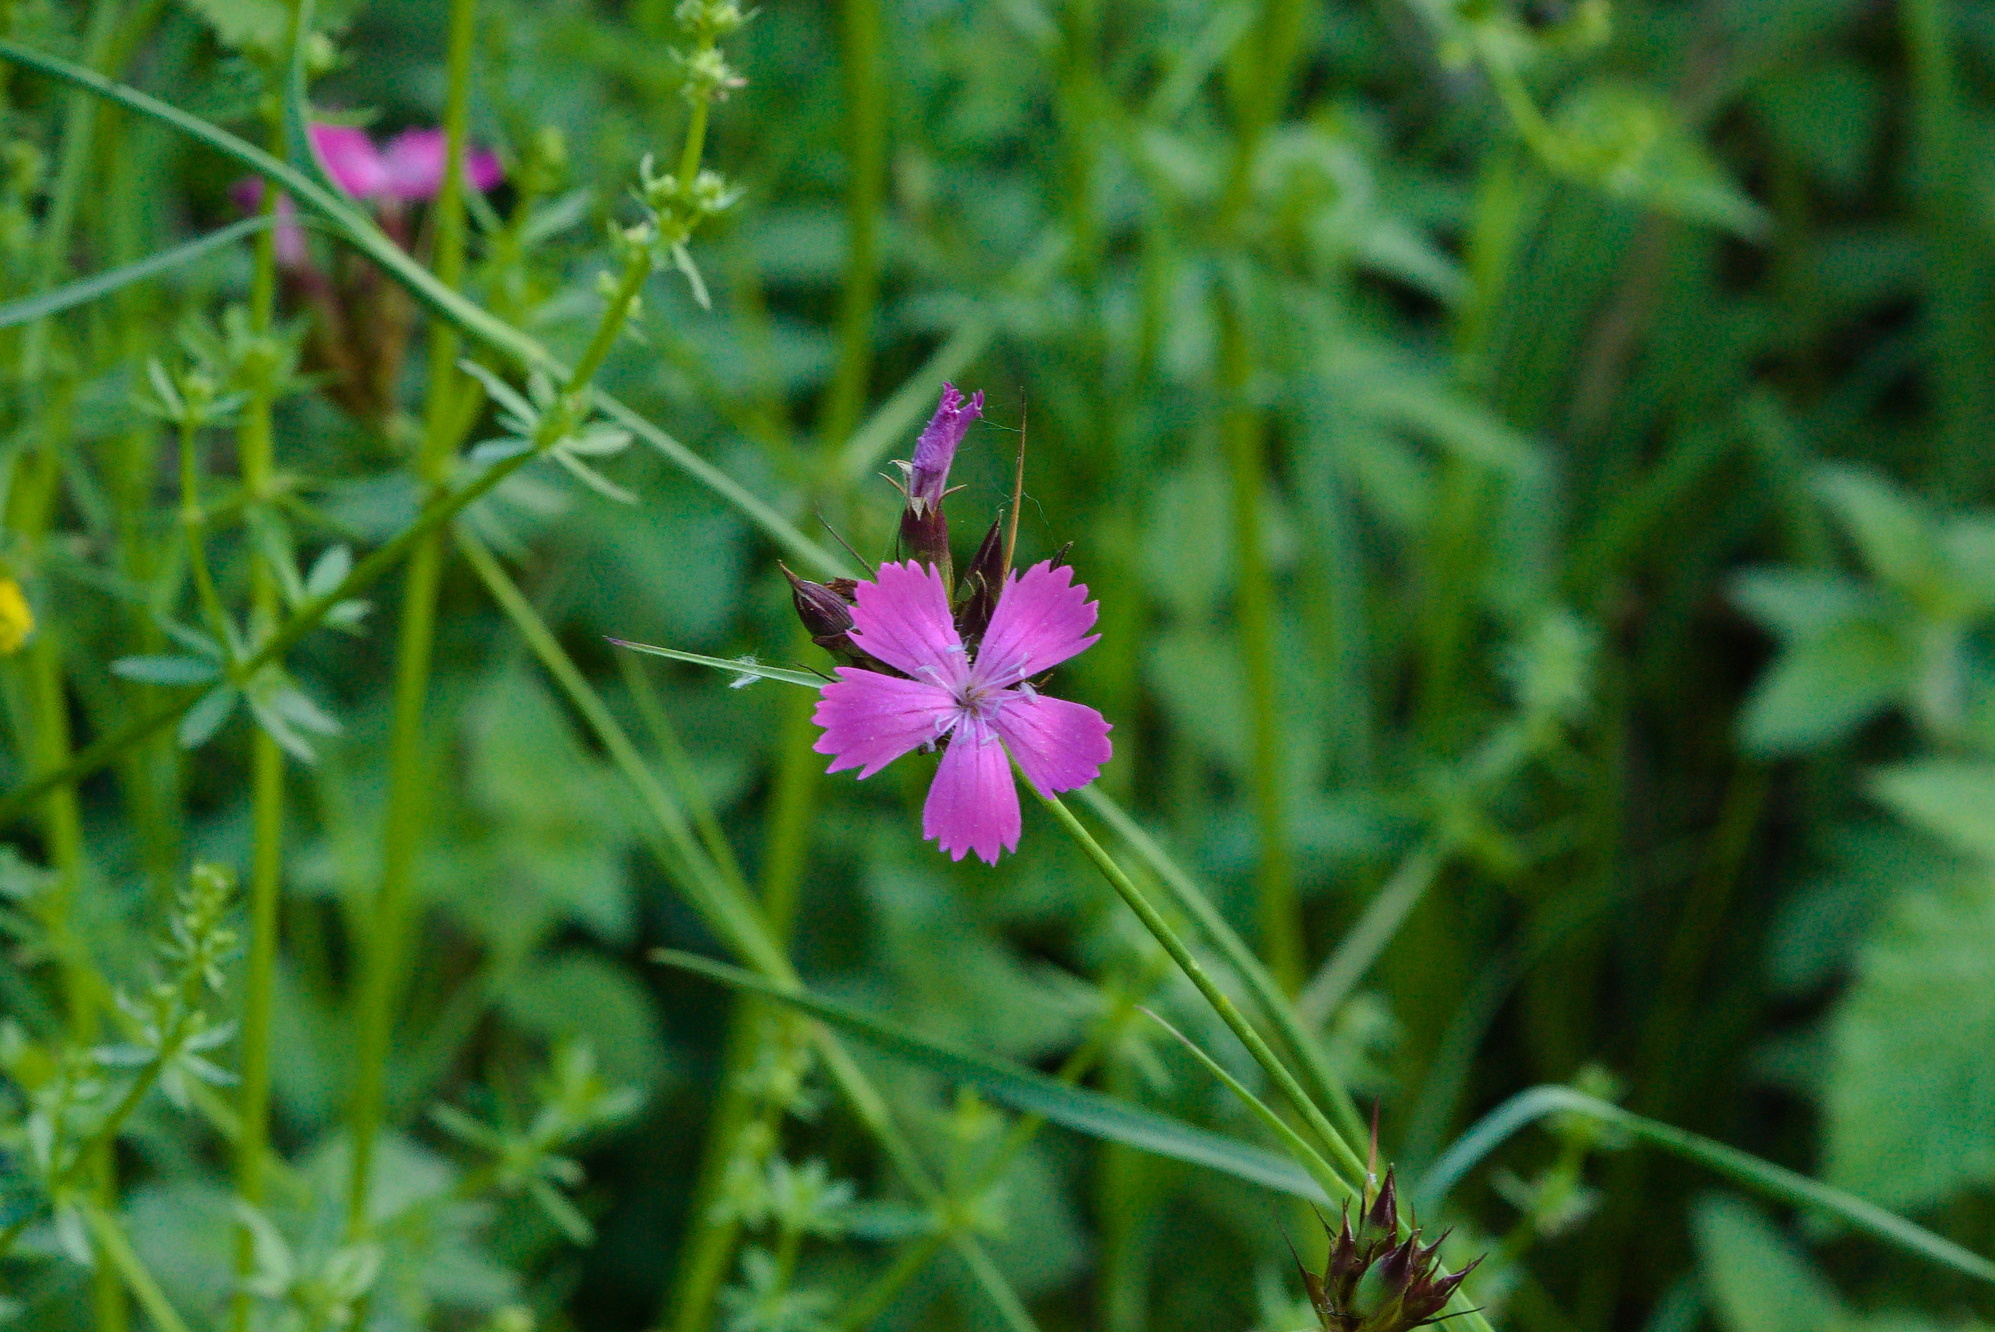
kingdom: Plantae
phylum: Tracheophyta
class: Magnoliopsida
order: Caryophyllales
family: Caryophyllaceae
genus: Dianthus
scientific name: Dianthus carthusianorum
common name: Carthusian pink
